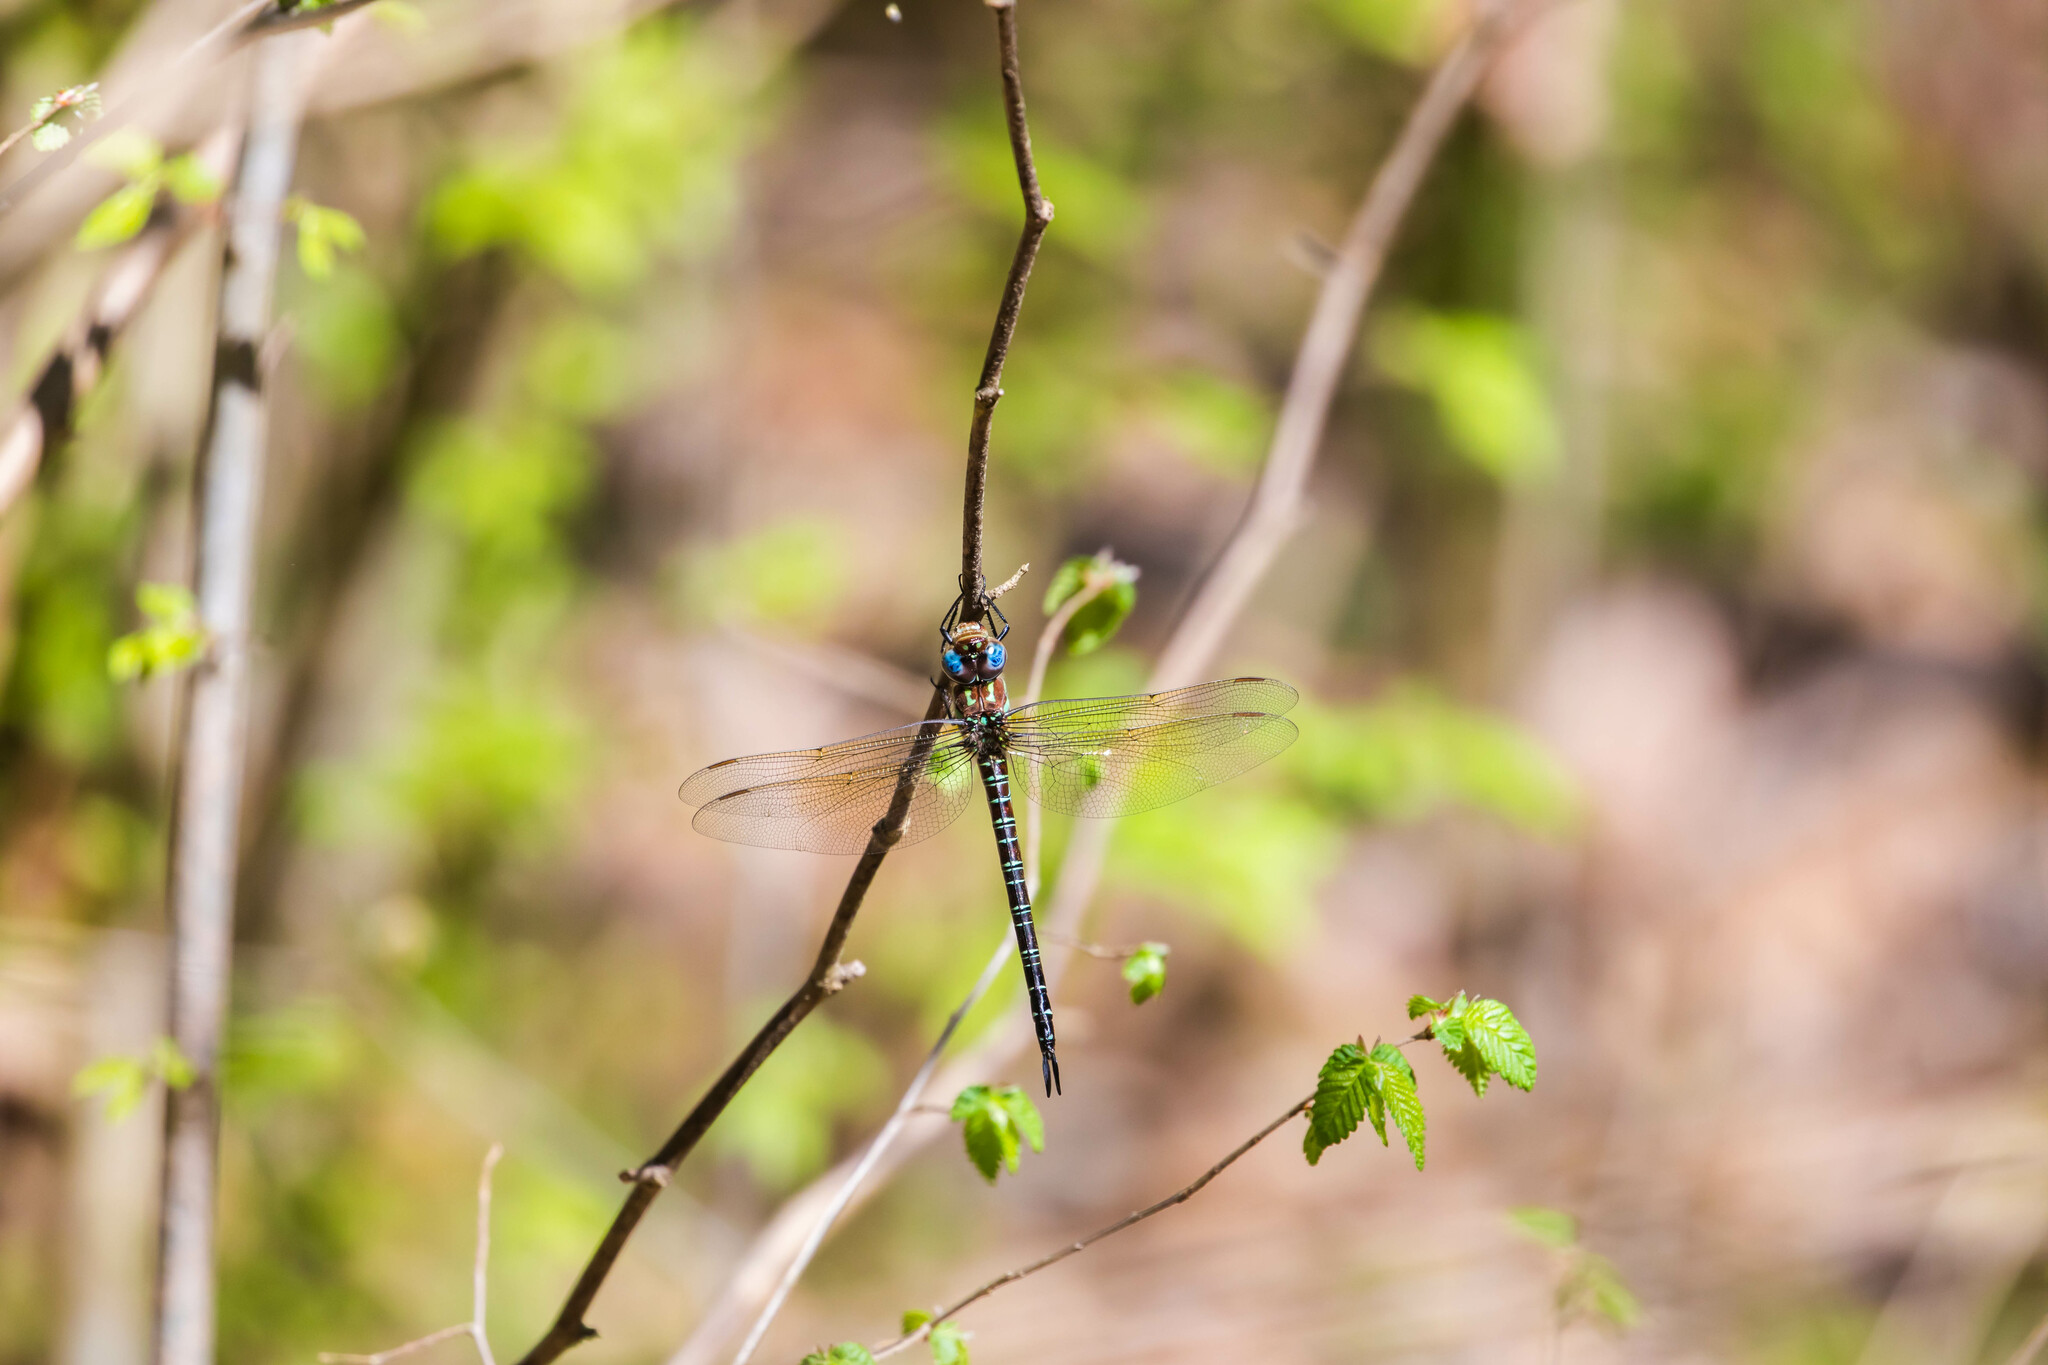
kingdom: Animalia
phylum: Arthropoda
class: Insecta
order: Odonata
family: Aeshnidae
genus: Epiaeschna
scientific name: Epiaeschna heros
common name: Swamp darner
